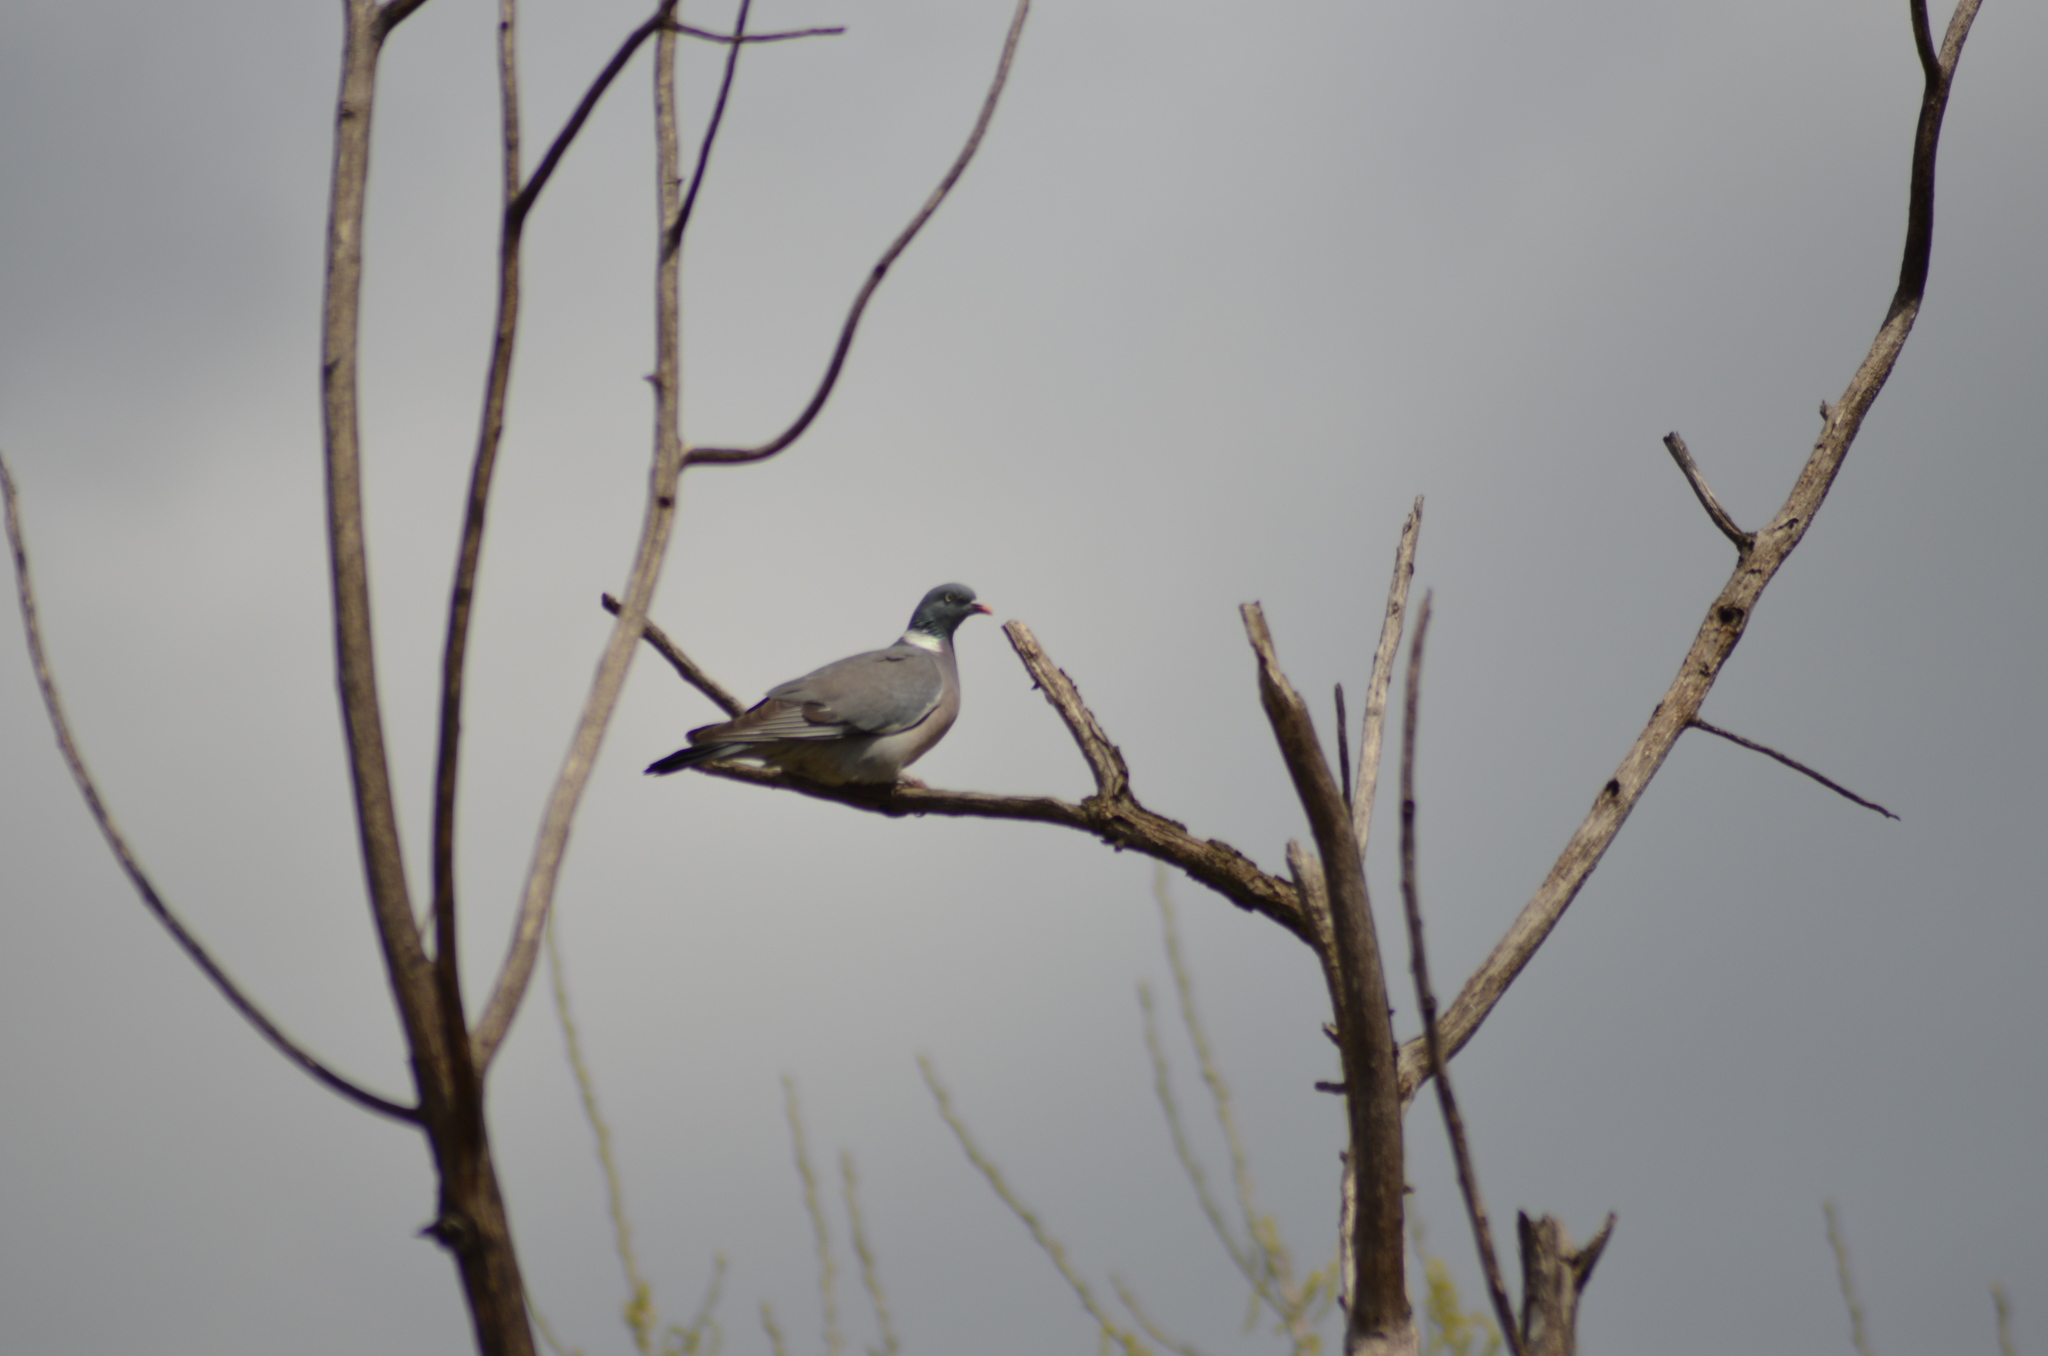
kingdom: Animalia
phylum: Chordata
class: Aves
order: Columbiformes
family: Columbidae
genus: Columba
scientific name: Columba palumbus
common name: Common wood pigeon
